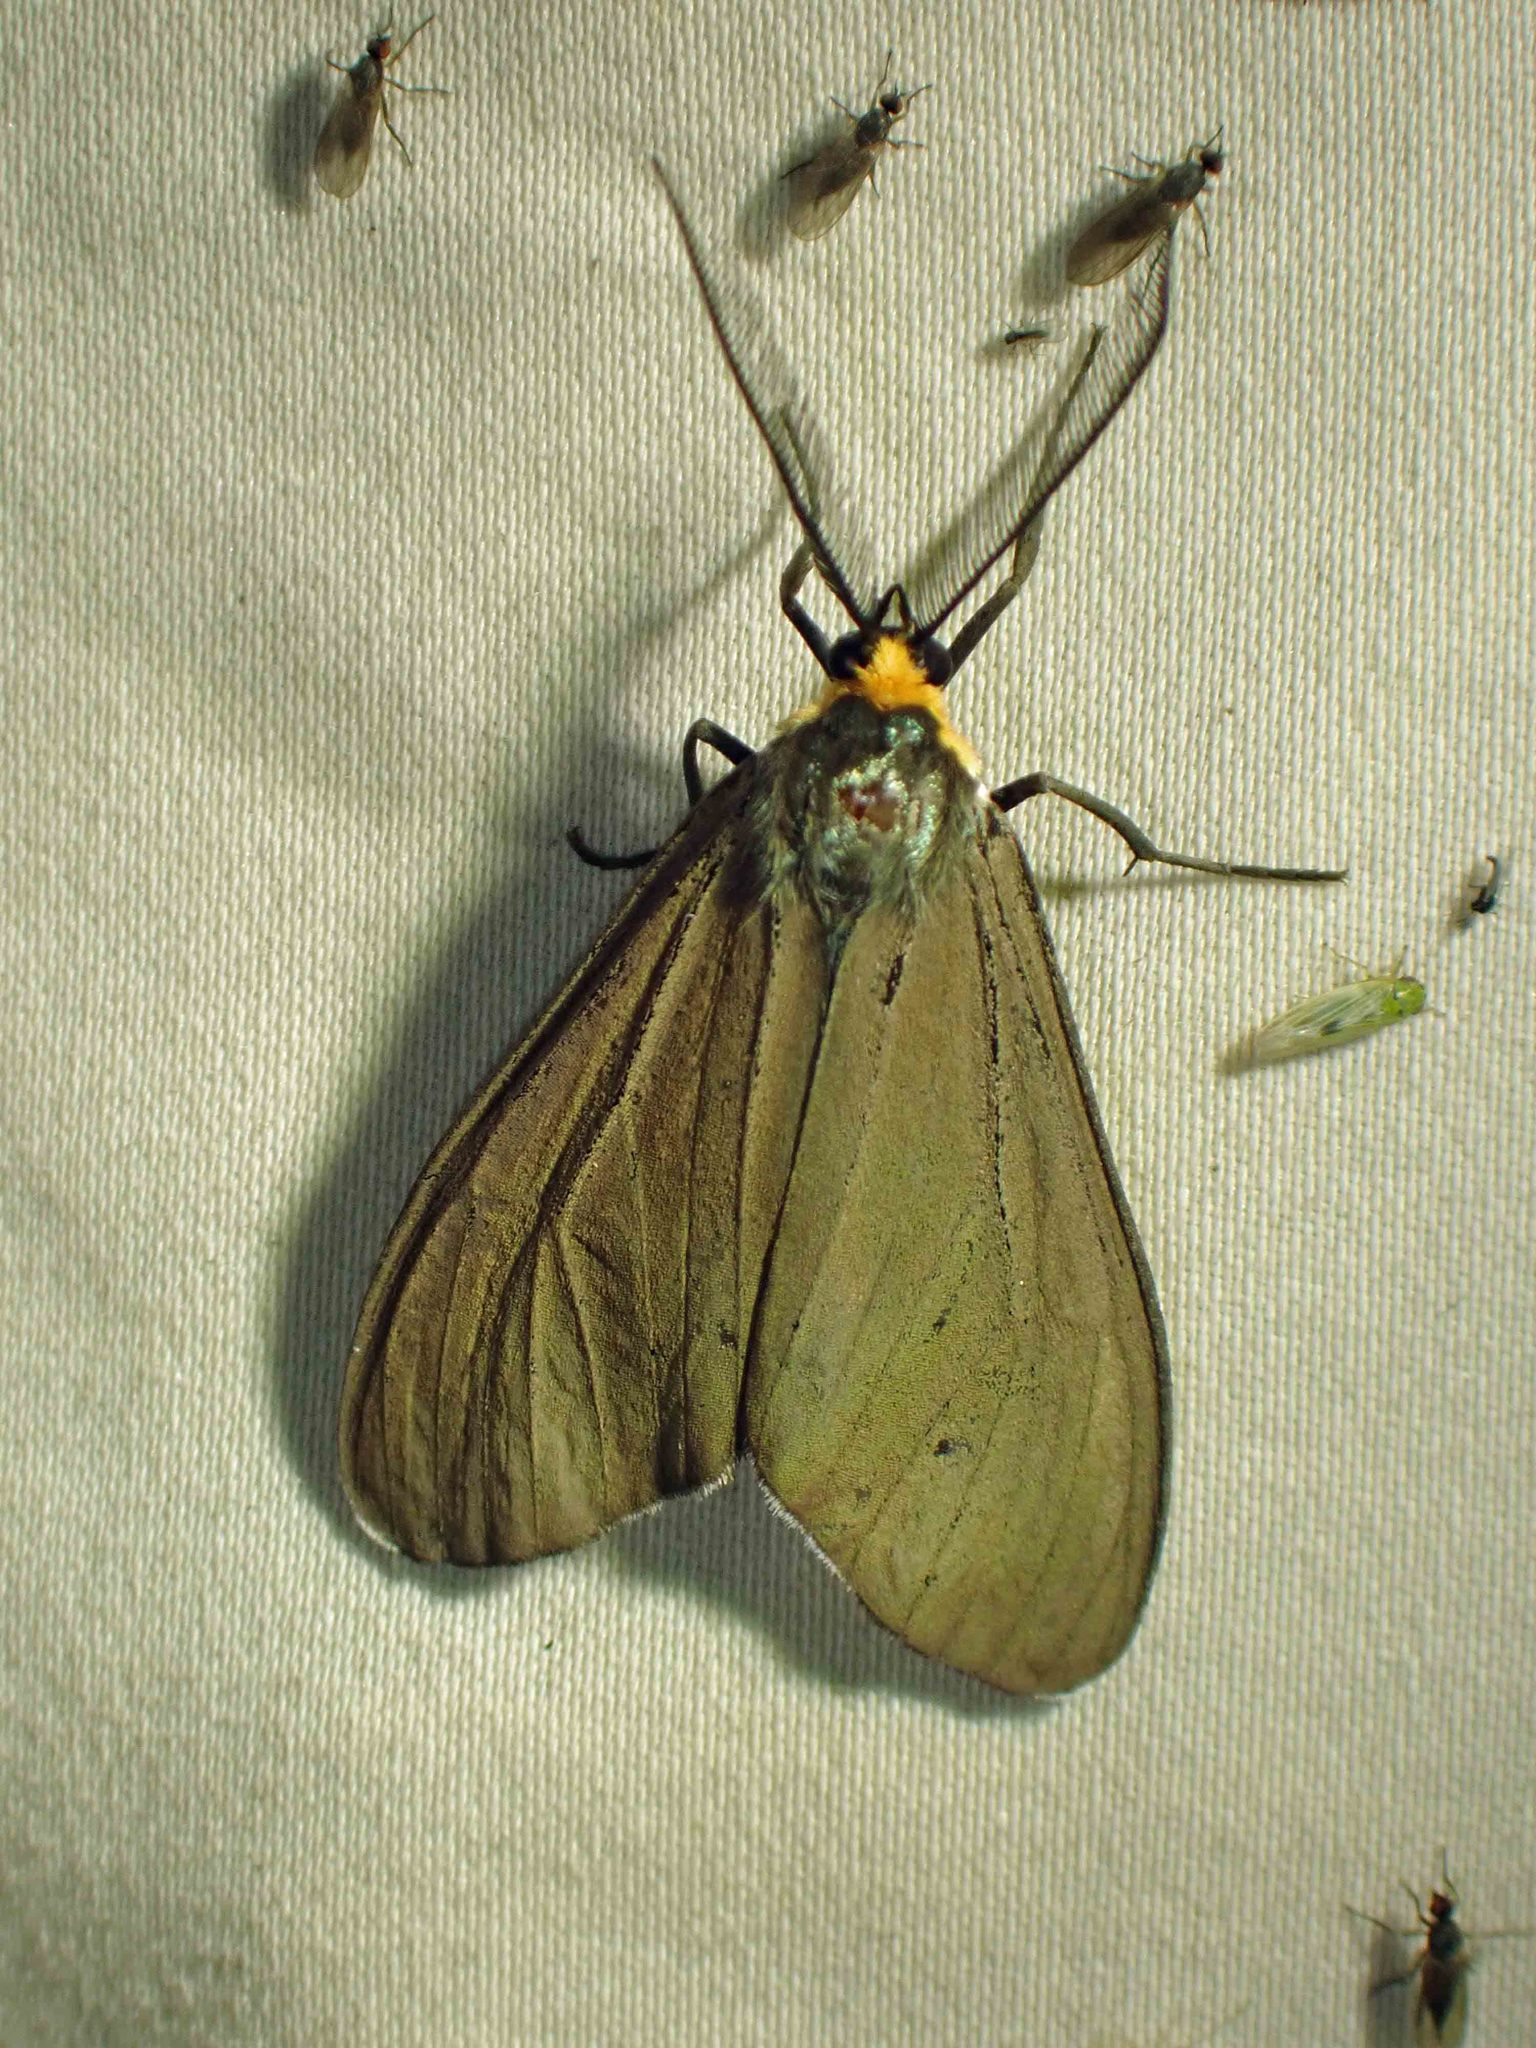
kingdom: Animalia
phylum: Arthropoda
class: Insecta
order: Lepidoptera
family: Erebidae
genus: Ctenucha
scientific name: Ctenucha virginica
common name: Virginia ctenucha moth
